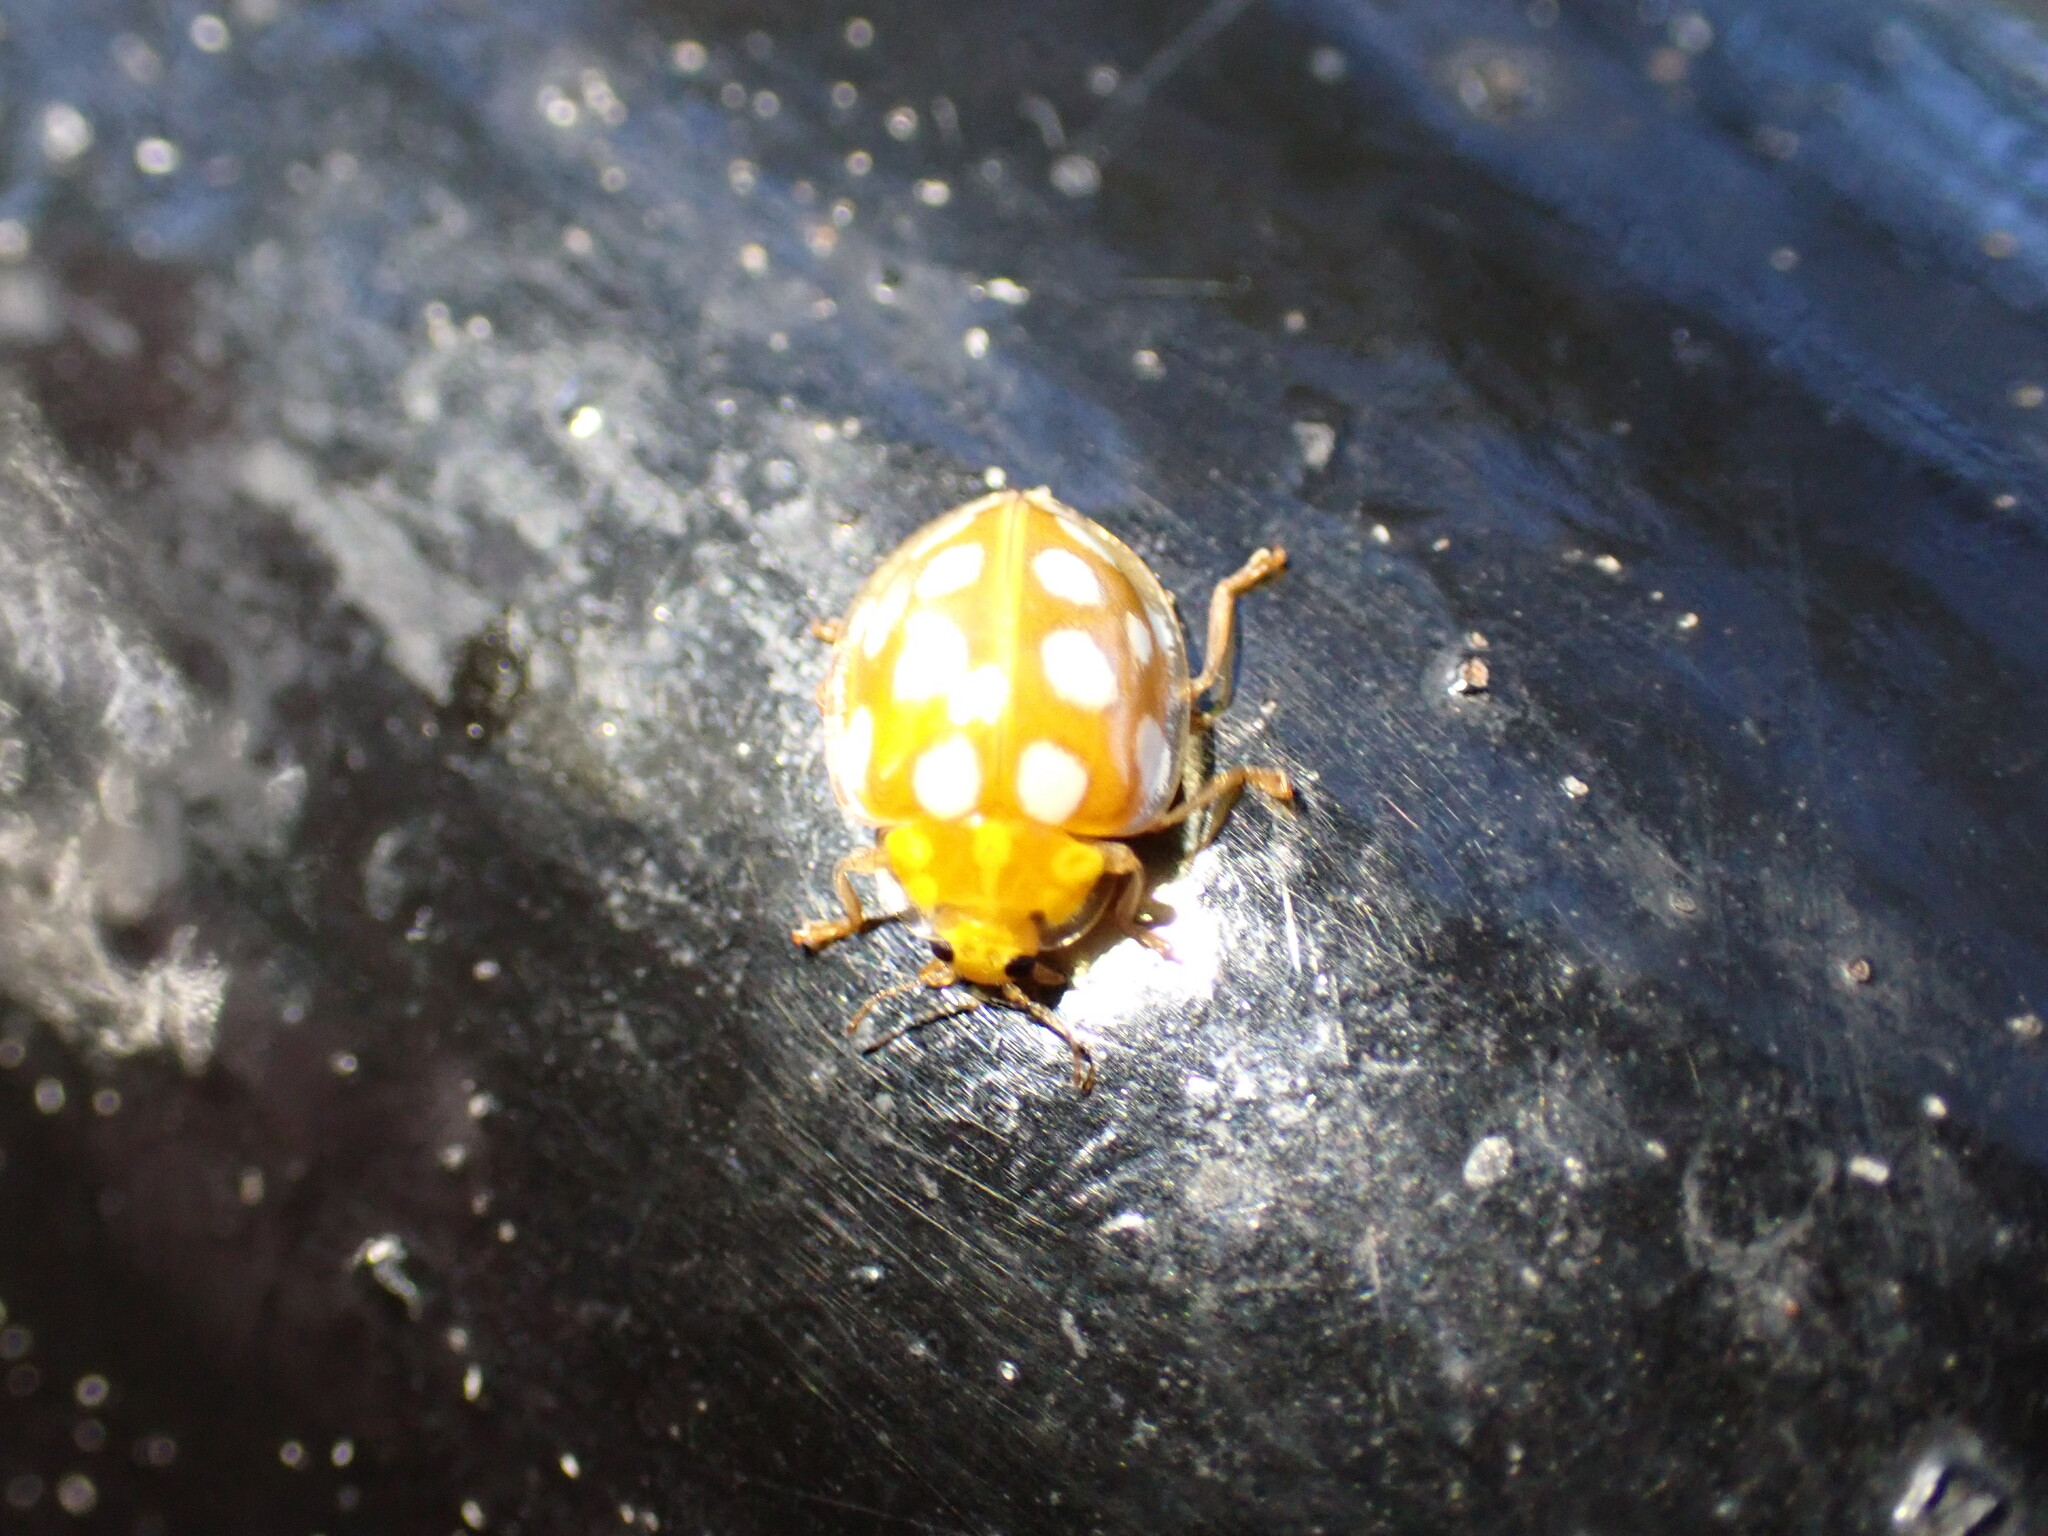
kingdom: Animalia
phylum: Arthropoda
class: Insecta
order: Coleoptera
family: Coccinellidae
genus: Halyzia
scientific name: Halyzia sedecimguttata
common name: Orange ladybird
